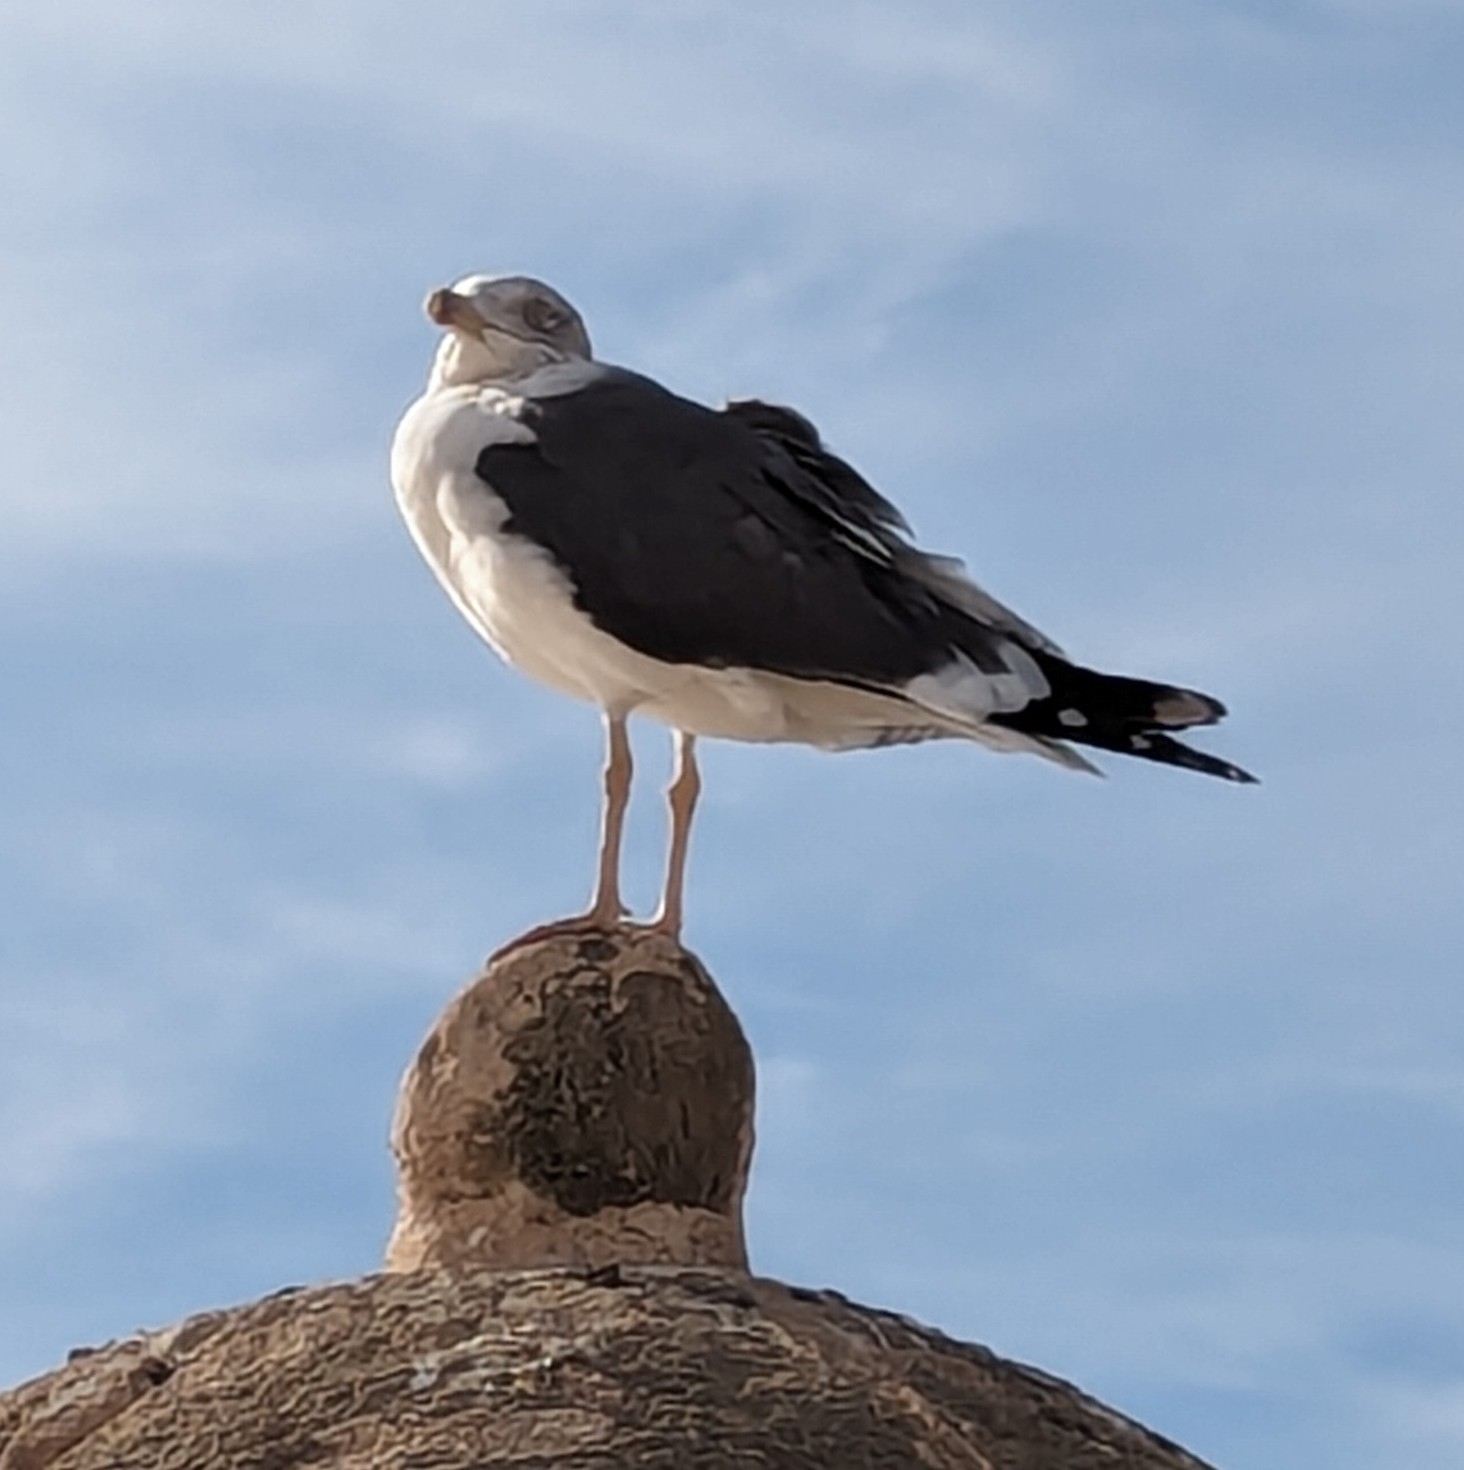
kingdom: Animalia
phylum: Chordata
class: Aves
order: Charadriiformes
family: Laridae
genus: Larus
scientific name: Larus fuscus
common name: Lesser black-backed gull
